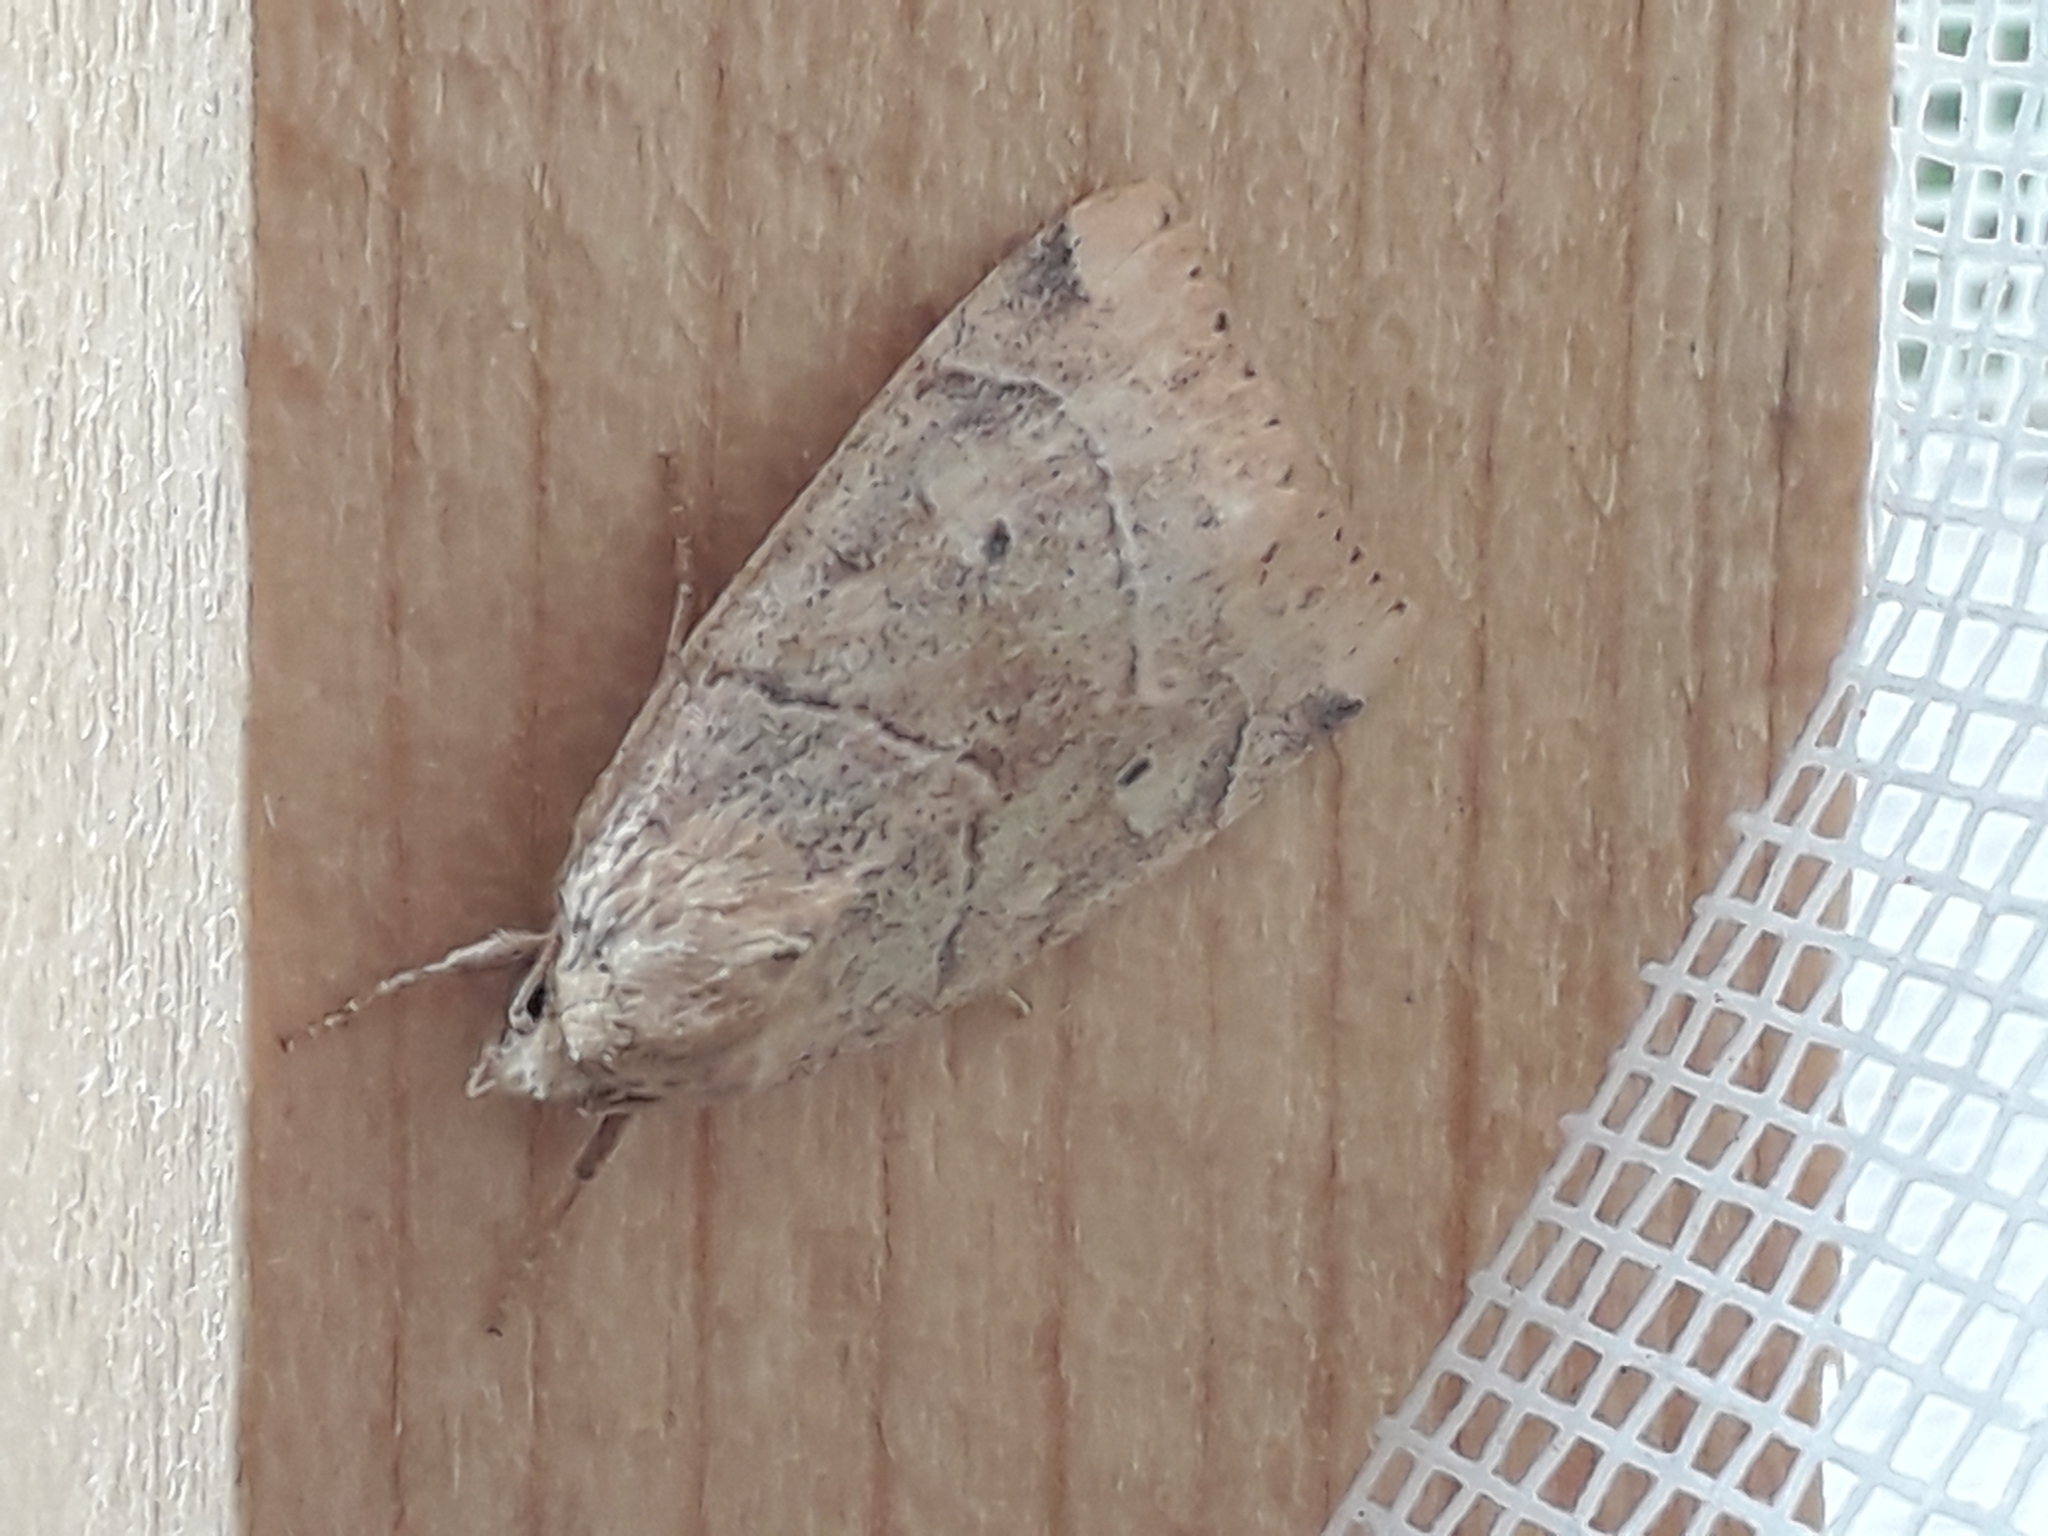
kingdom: Animalia
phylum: Arthropoda
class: Insecta
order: Lepidoptera
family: Noctuidae
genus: Cosmia
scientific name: Cosmia trapezina
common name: Dun-bar
